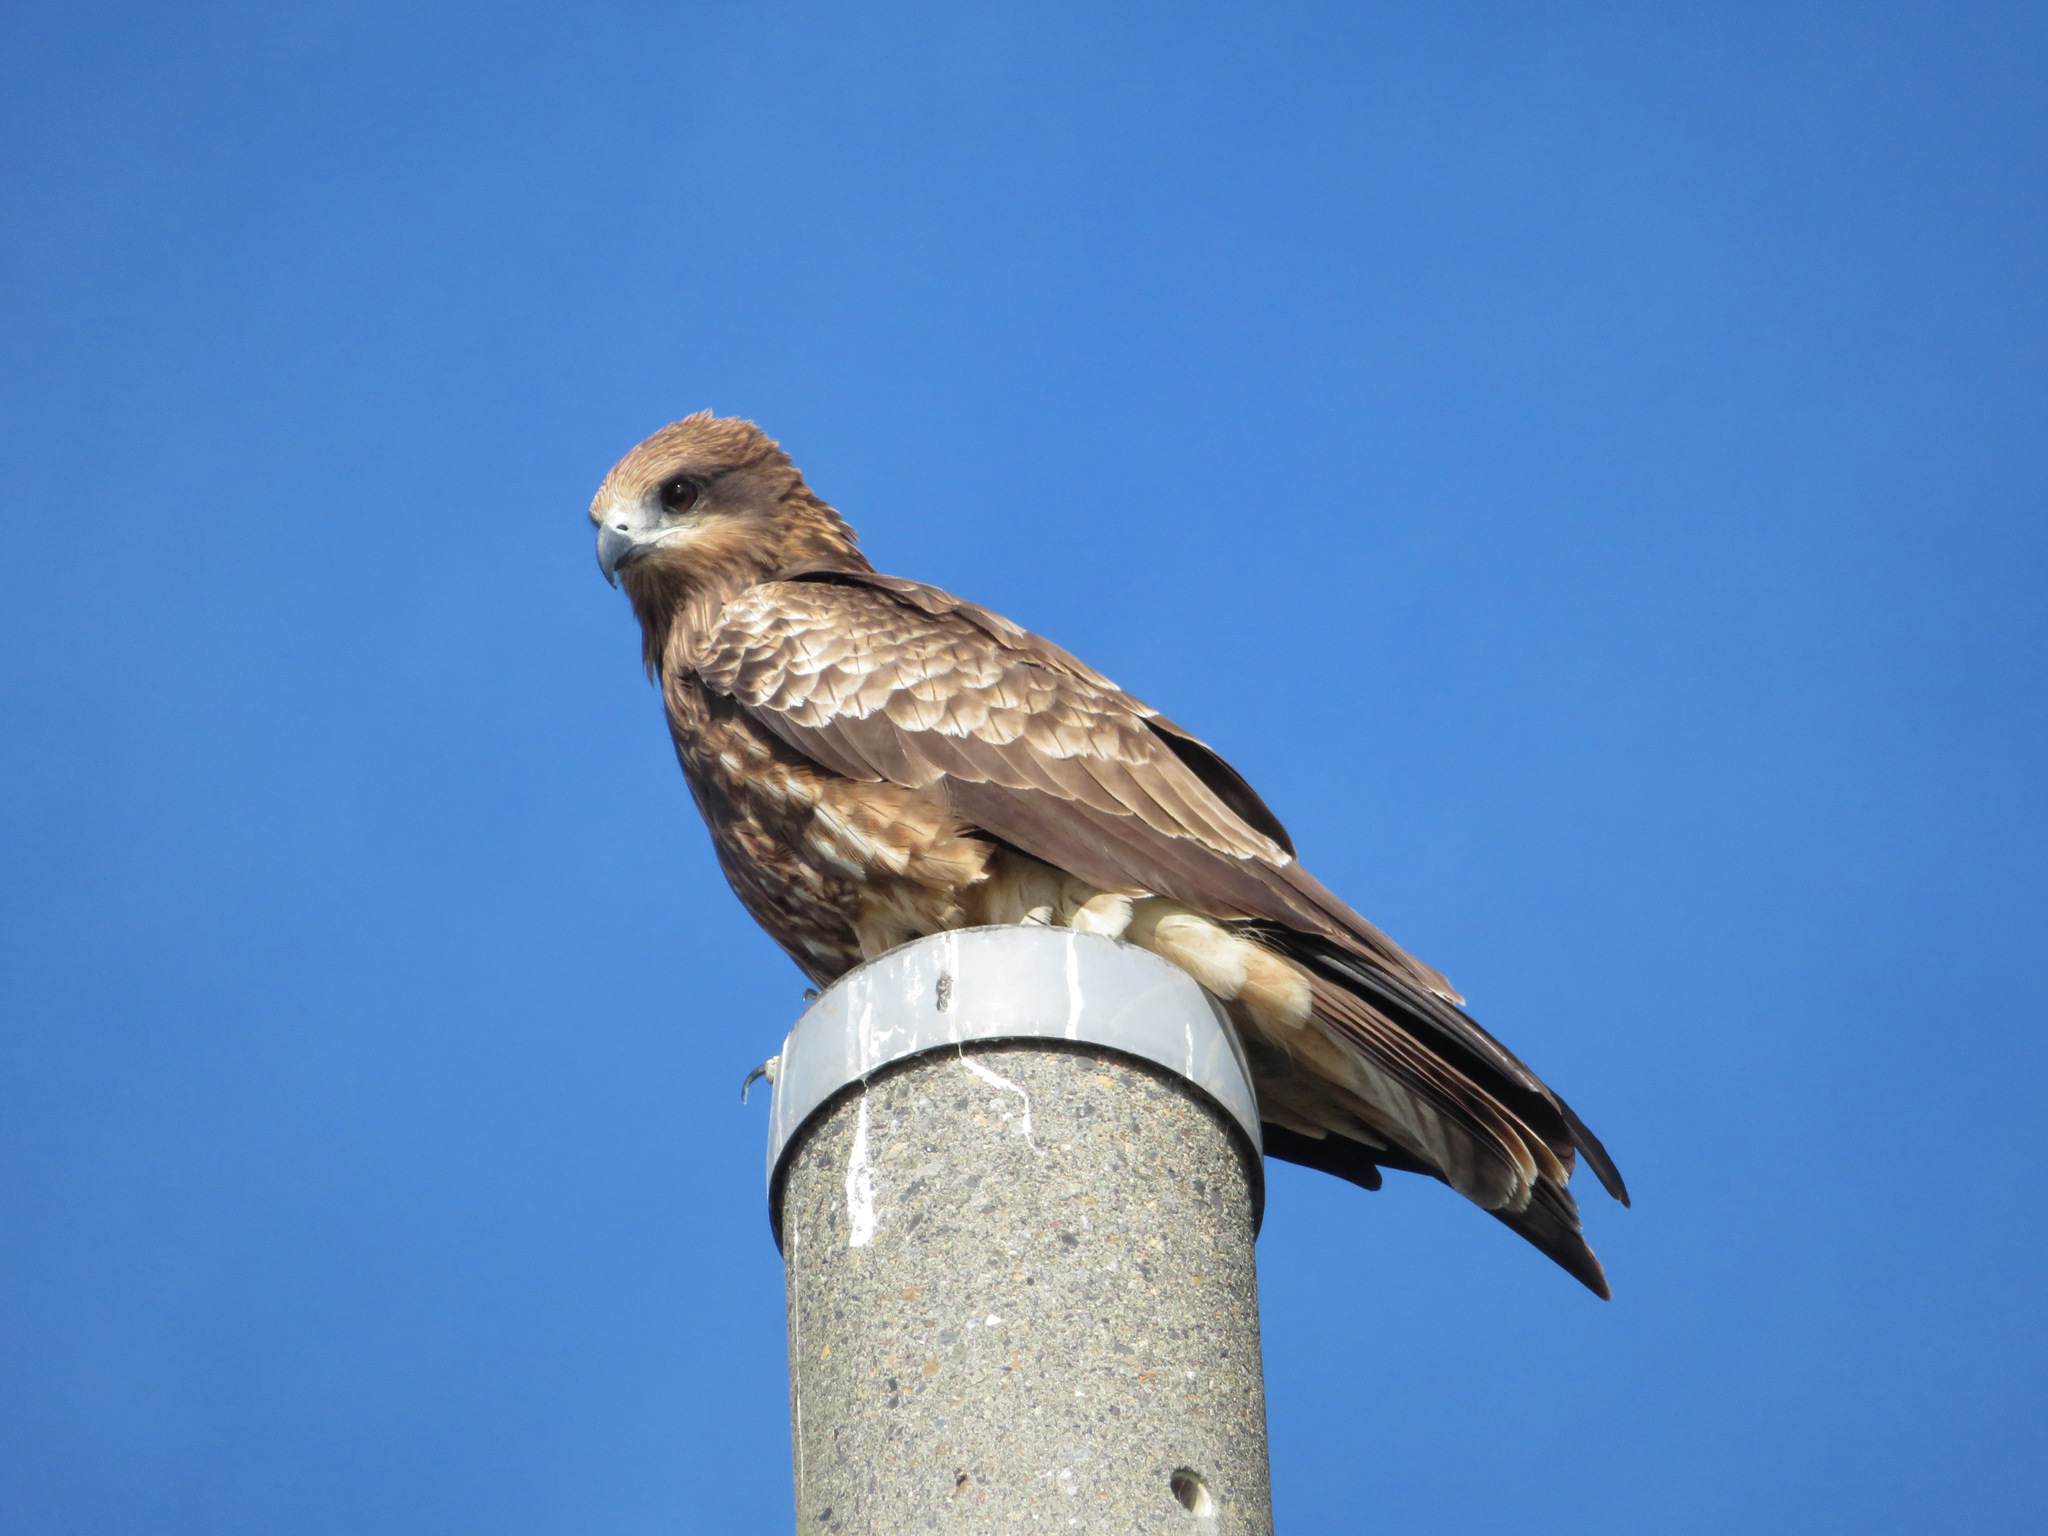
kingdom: Animalia
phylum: Chordata
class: Aves
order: Accipitriformes
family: Accipitridae
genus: Milvus
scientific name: Milvus migrans
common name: Black kite
